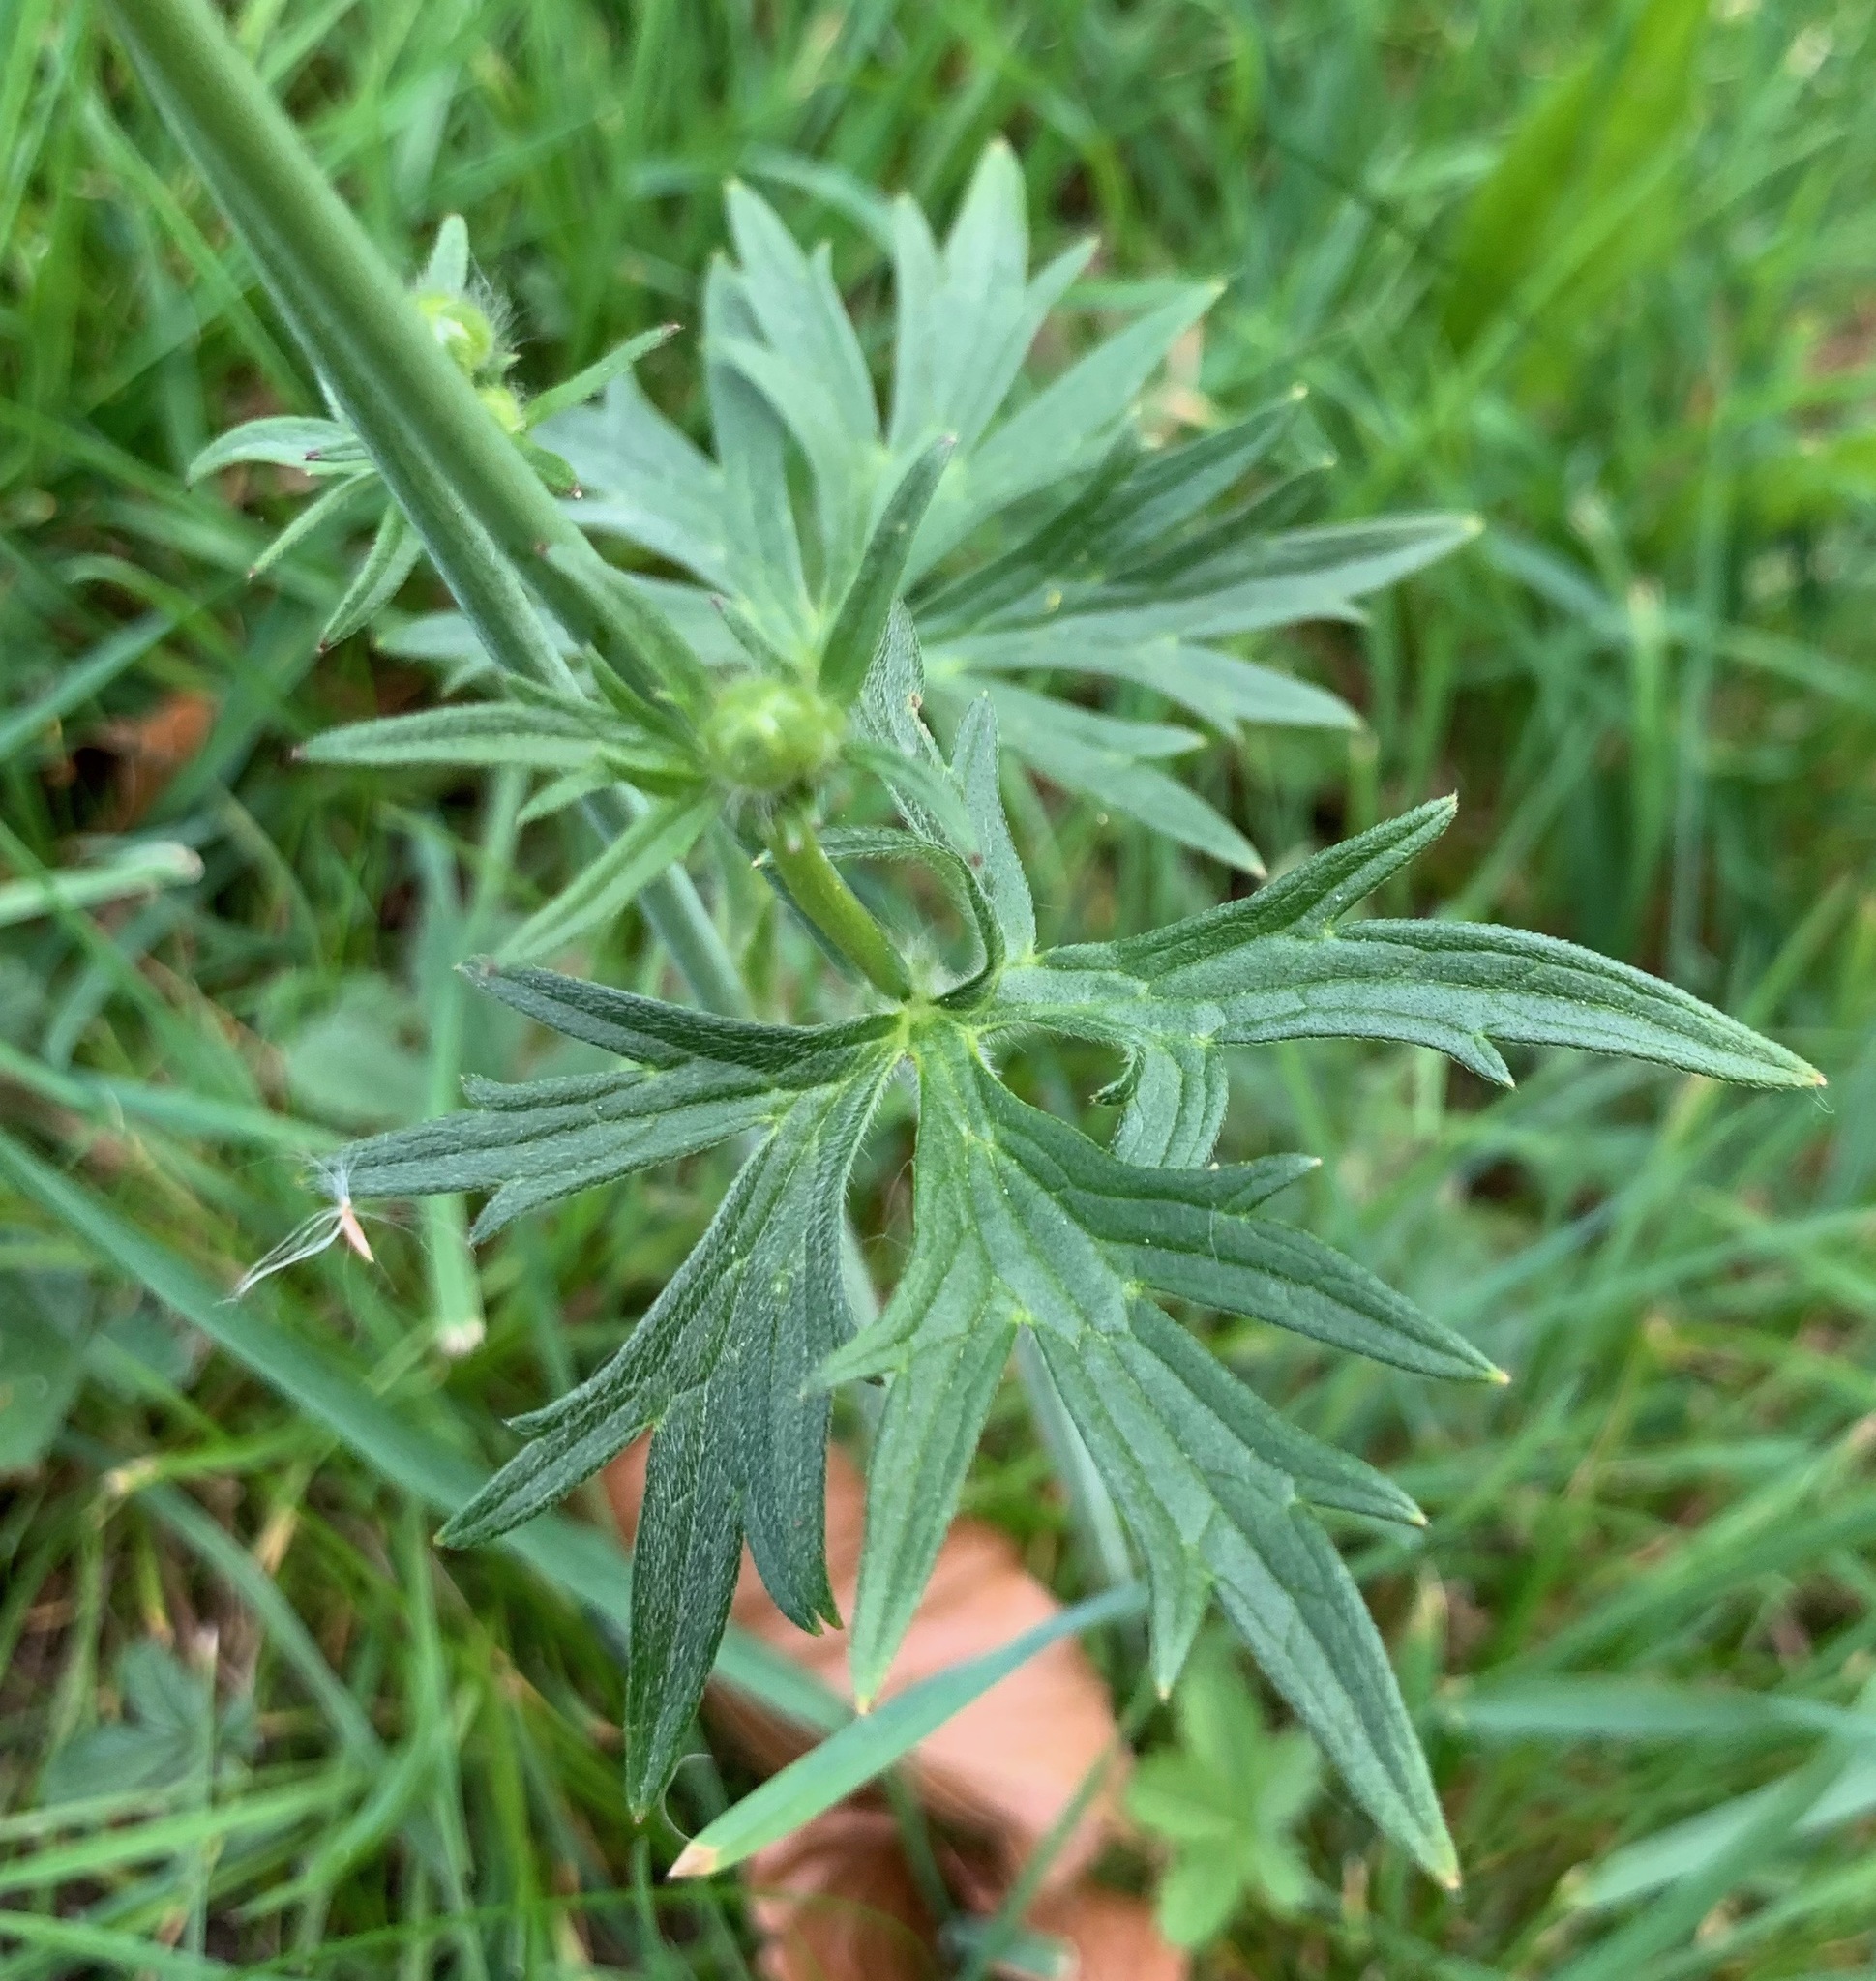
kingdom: Plantae
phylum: Tracheophyta
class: Magnoliopsida
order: Ranunculales
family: Ranunculaceae
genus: Ranunculus
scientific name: Ranunculus acris
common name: Meadow buttercup
